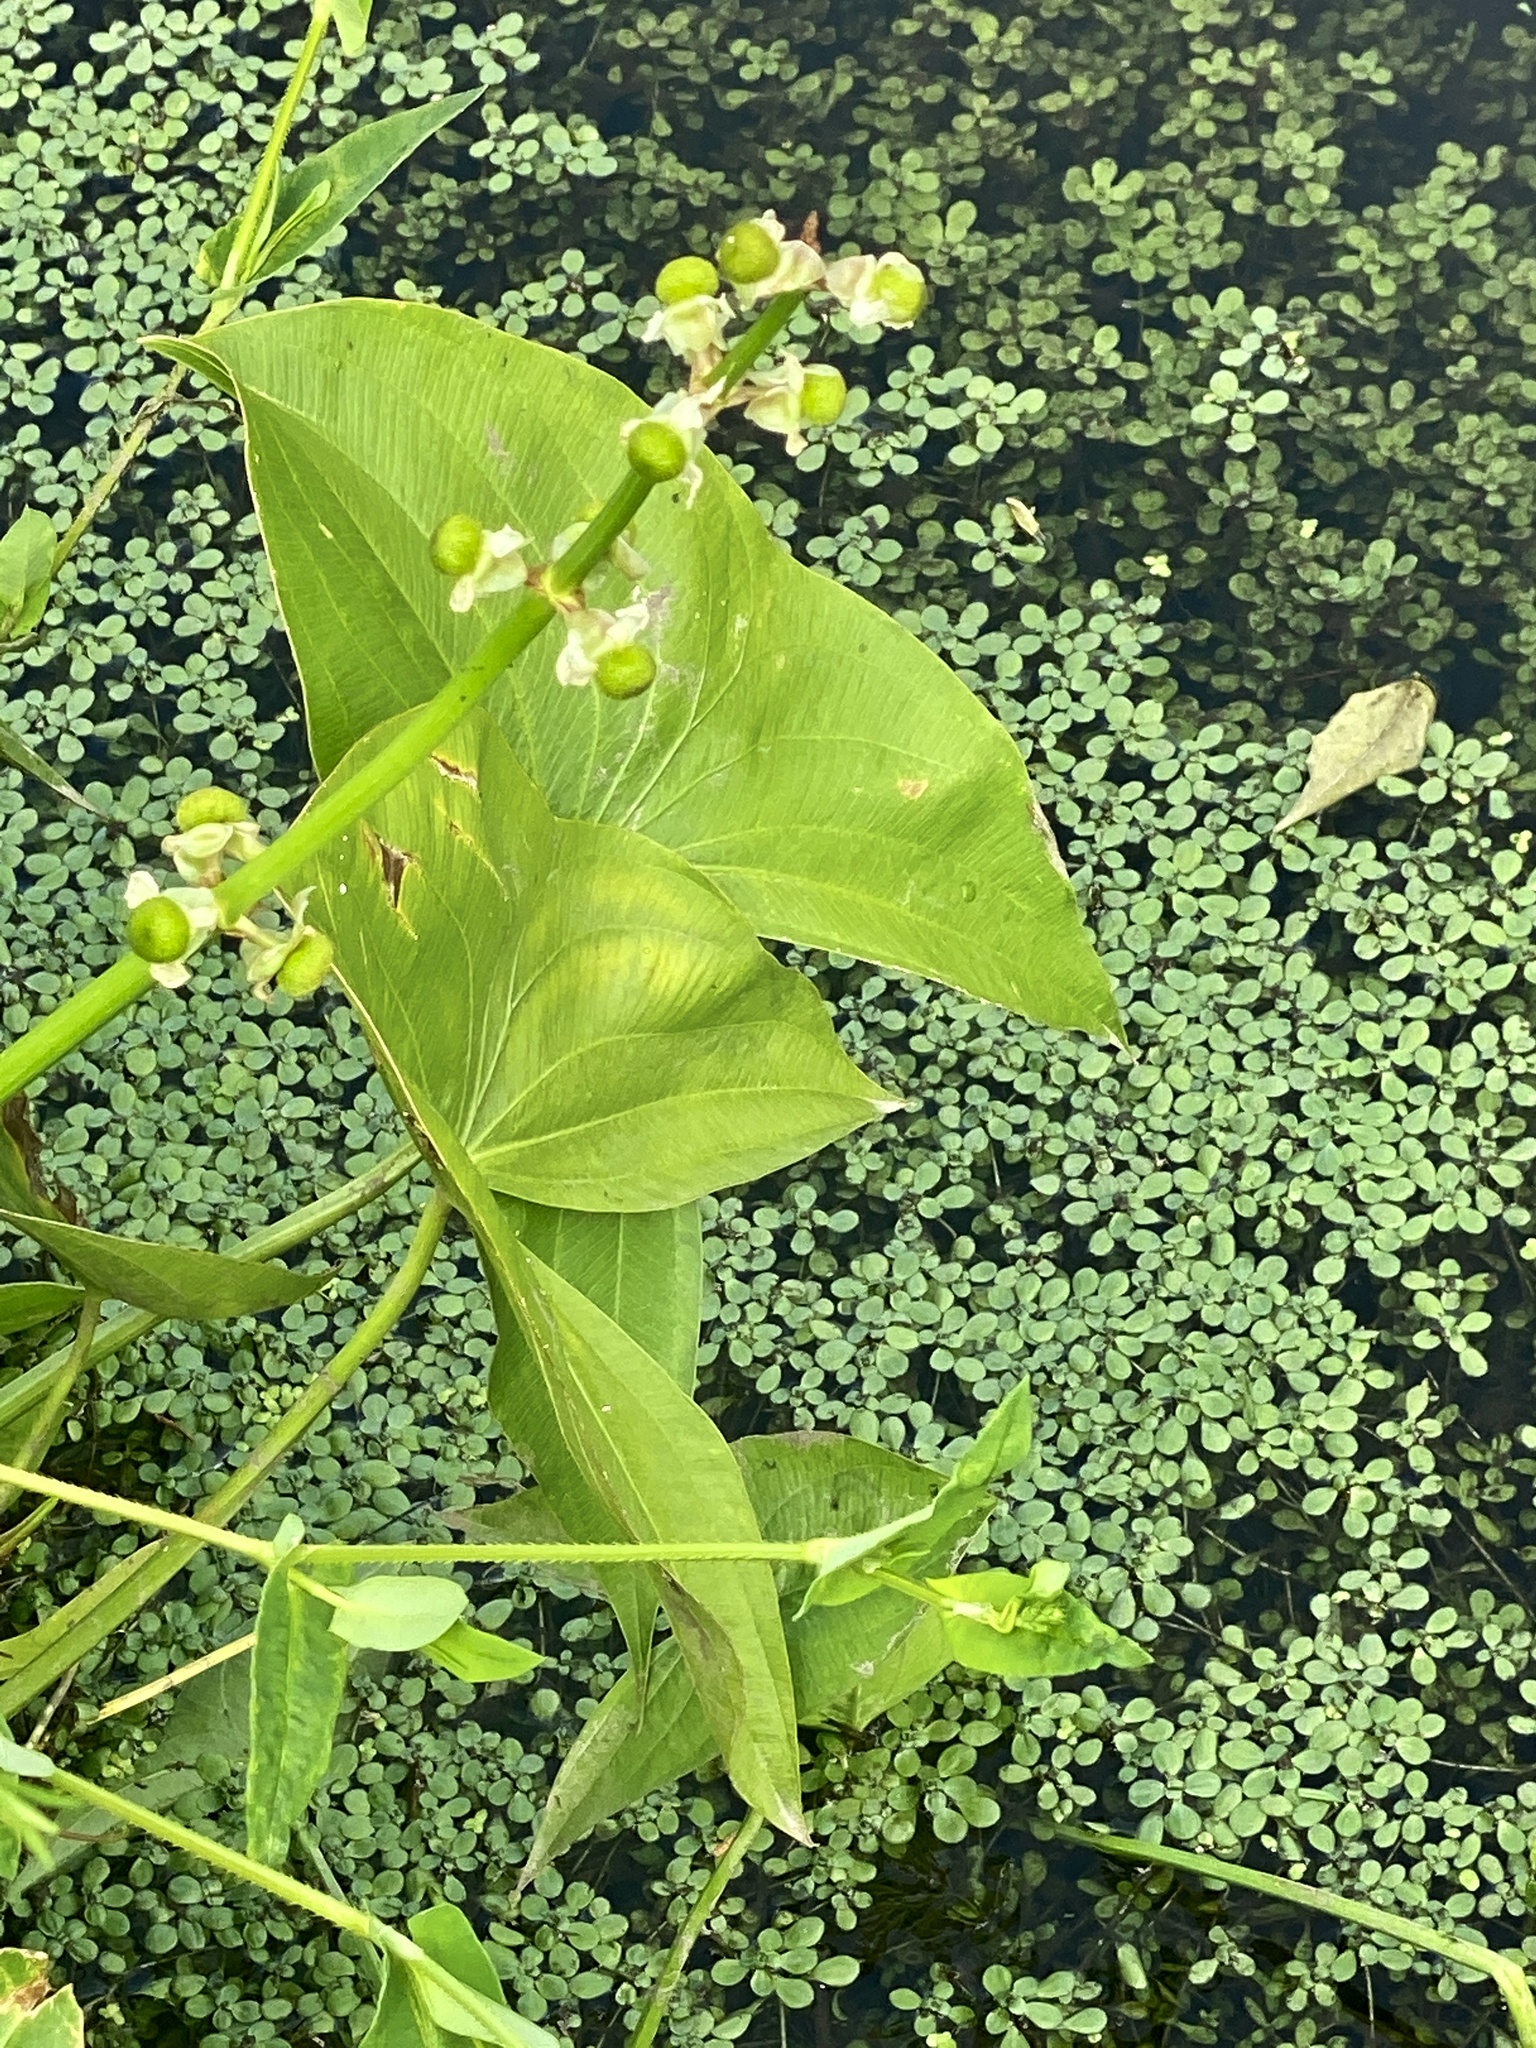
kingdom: Plantae
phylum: Tracheophyta
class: Liliopsida
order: Alismatales
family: Alismataceae
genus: Sagittaria
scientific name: Sagittaria latifolia
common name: Duck-potato
